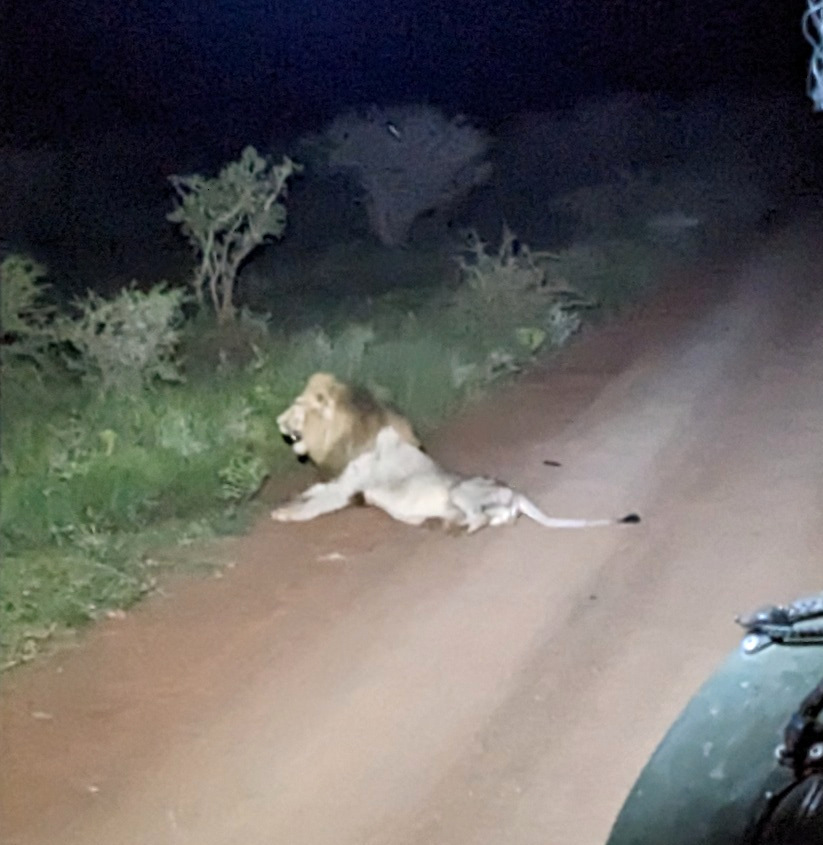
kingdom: Animalia
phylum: Chordata
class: Mammalia
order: Carnivora
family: Felidae
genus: Panthera
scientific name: Panthera leo
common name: Lion
